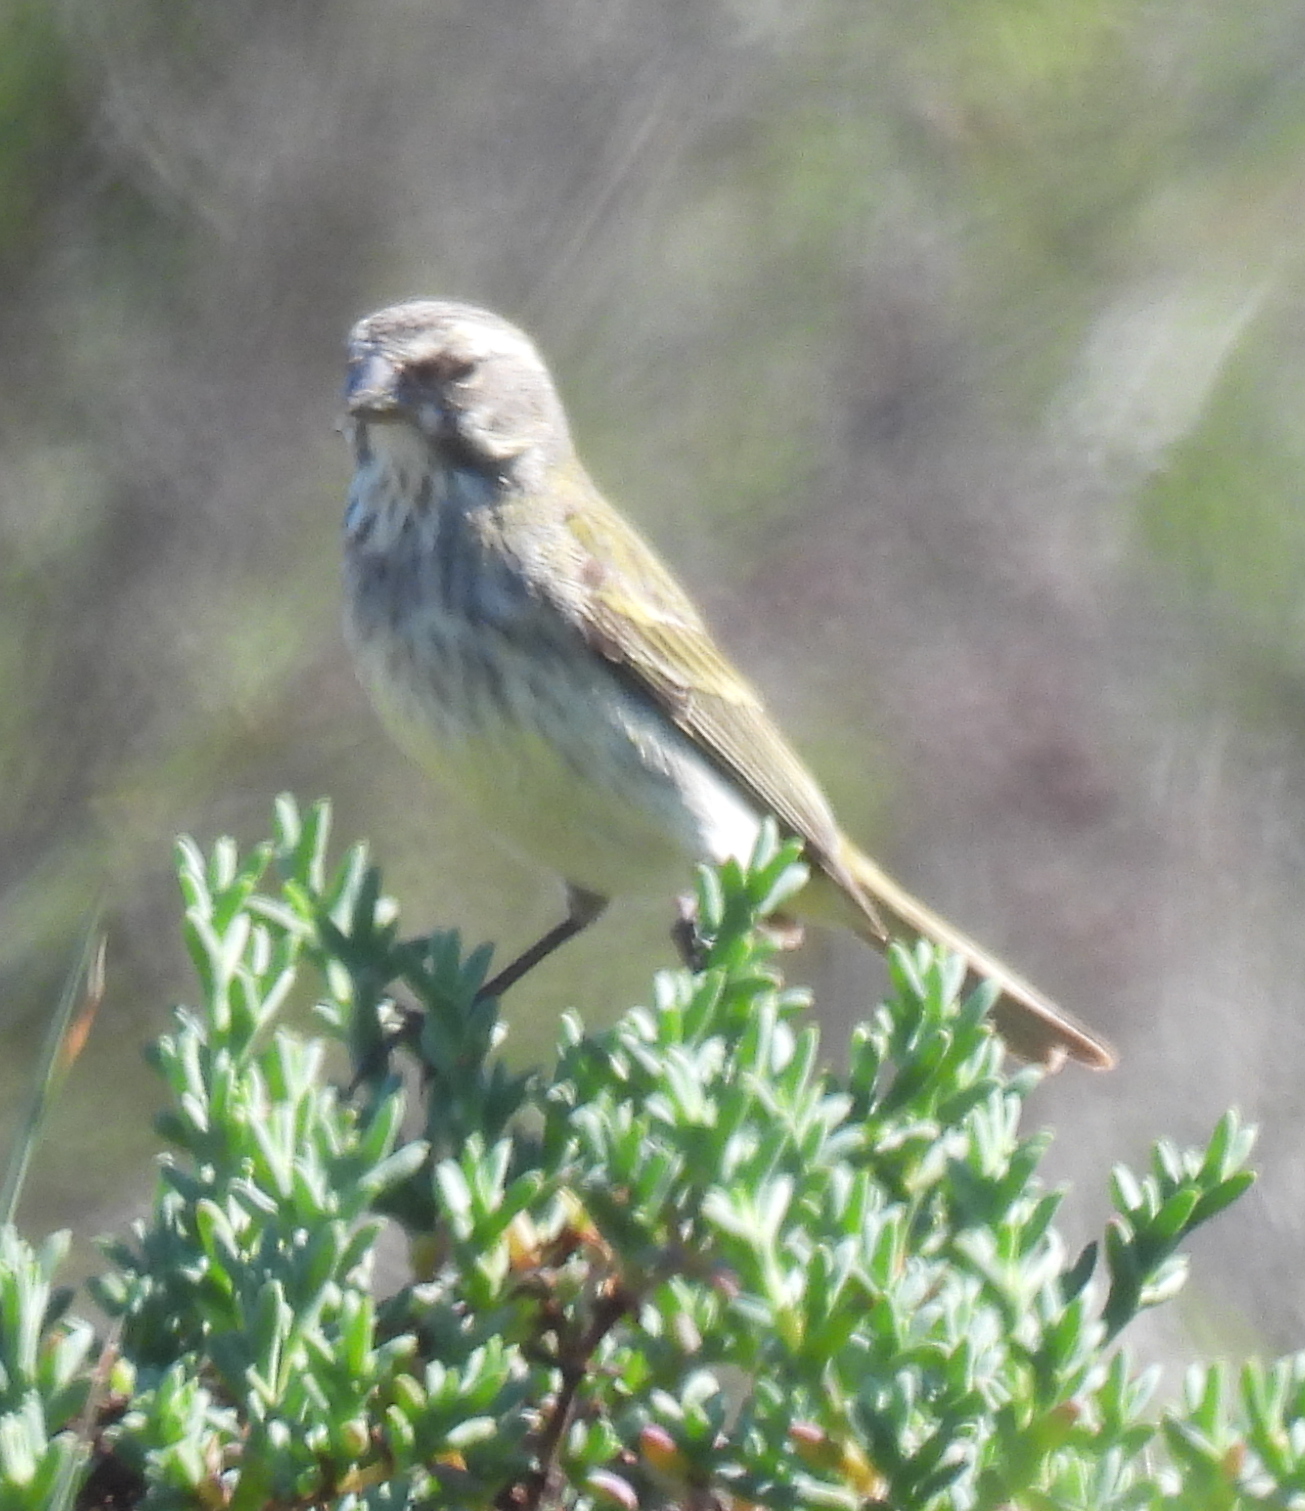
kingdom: Animalia
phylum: Chordata
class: Aves
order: Passeriformes
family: Fringillidae
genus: Crithagra
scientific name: Crithagra flaviventris
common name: Yellow canary
